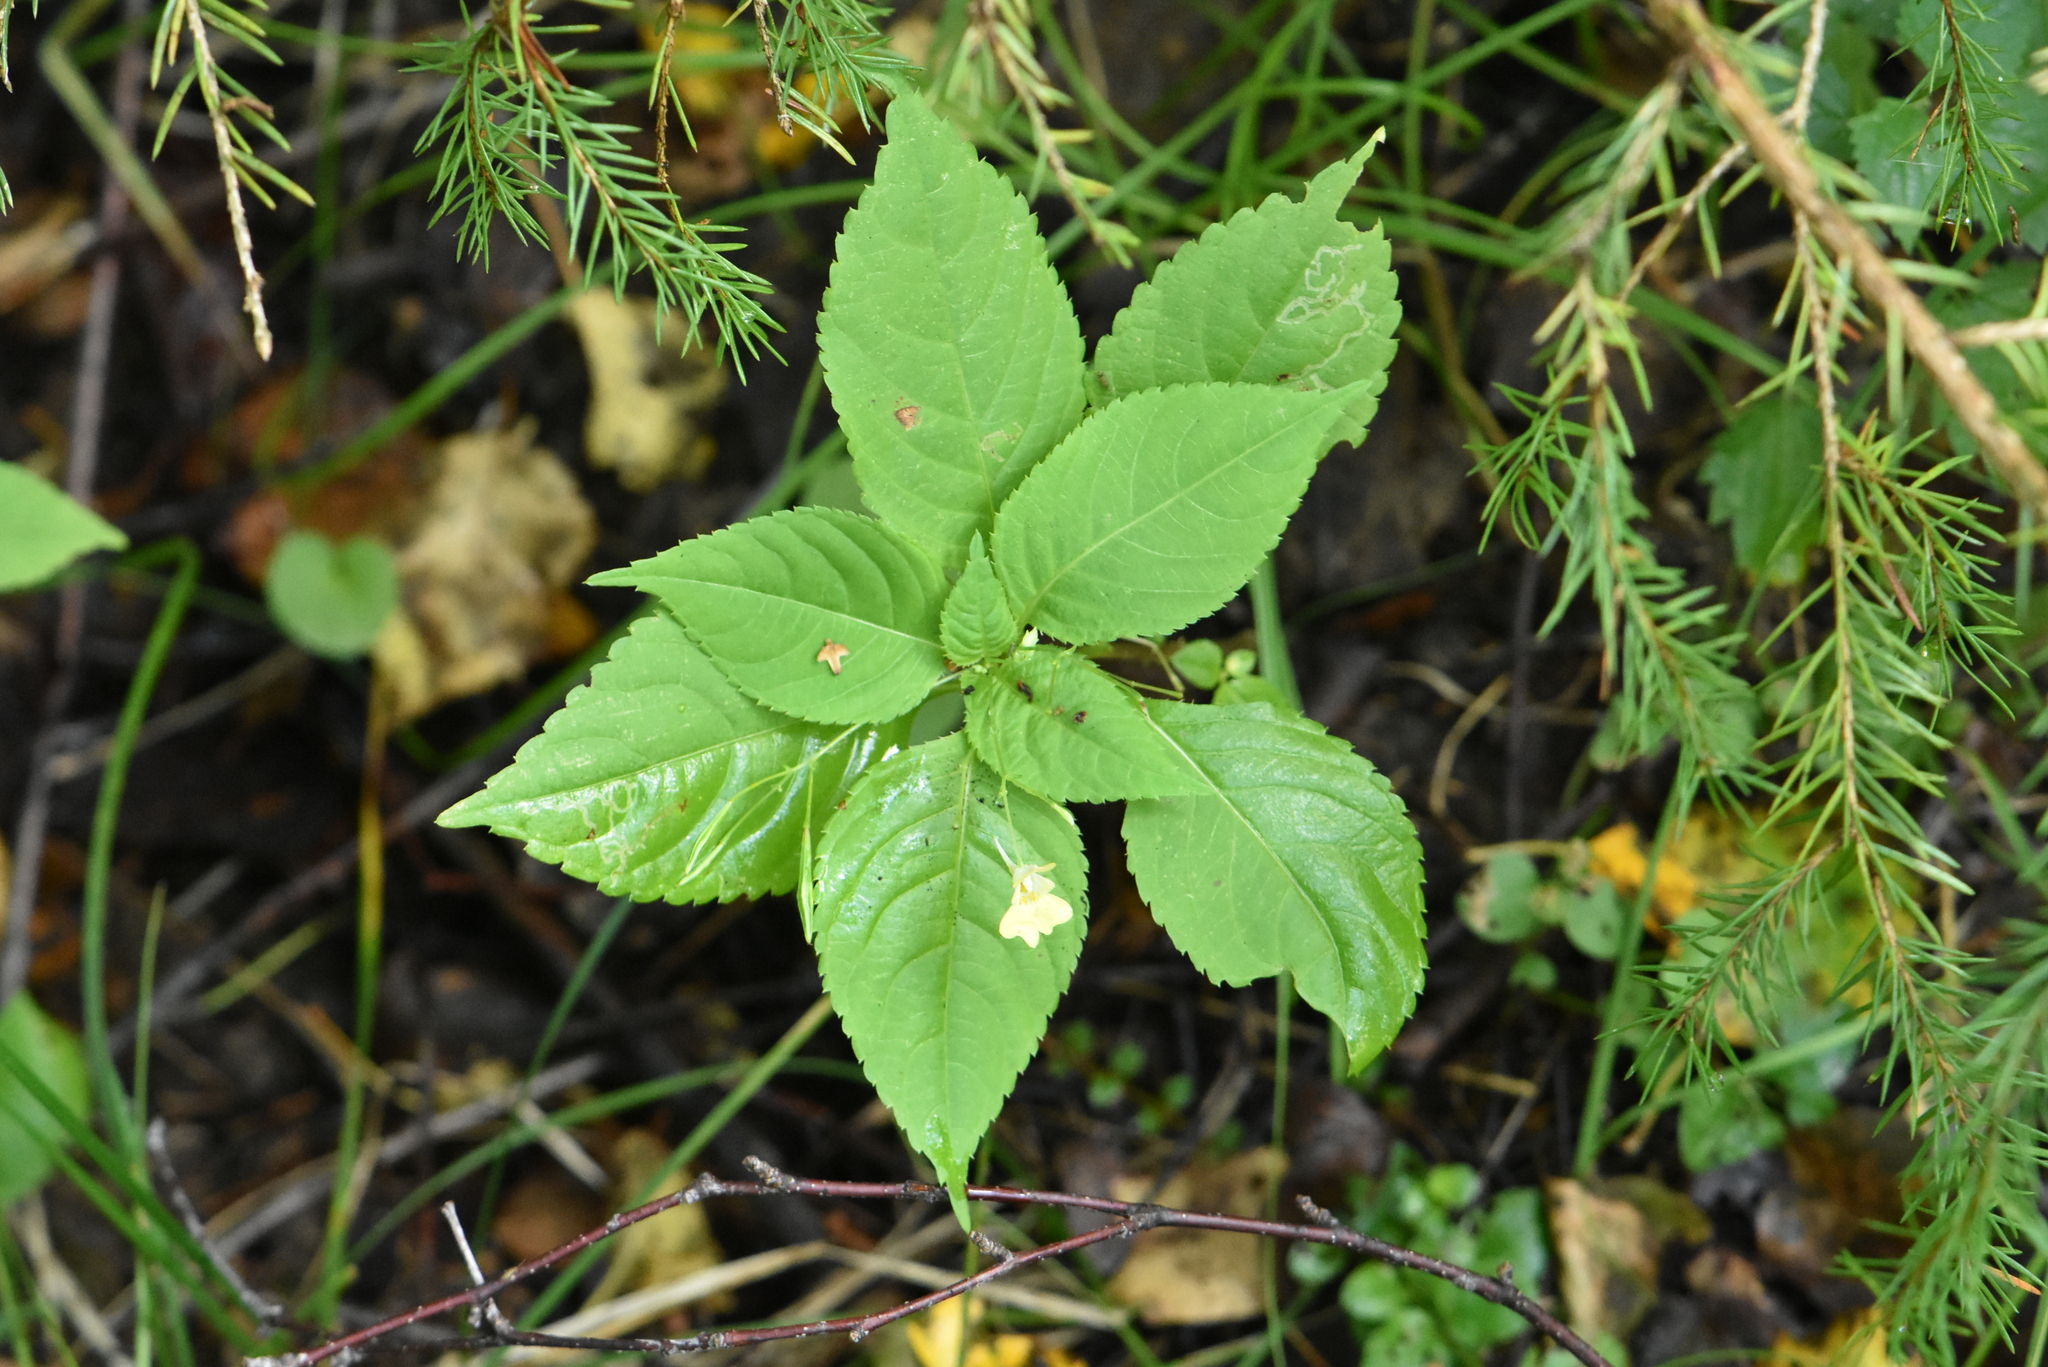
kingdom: Plantae
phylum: Tracheophyta
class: Magnoliopsida
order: Ericales
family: Balsaminaceae
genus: Impatiens
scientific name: Impatiens parviflora
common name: Small balsam
